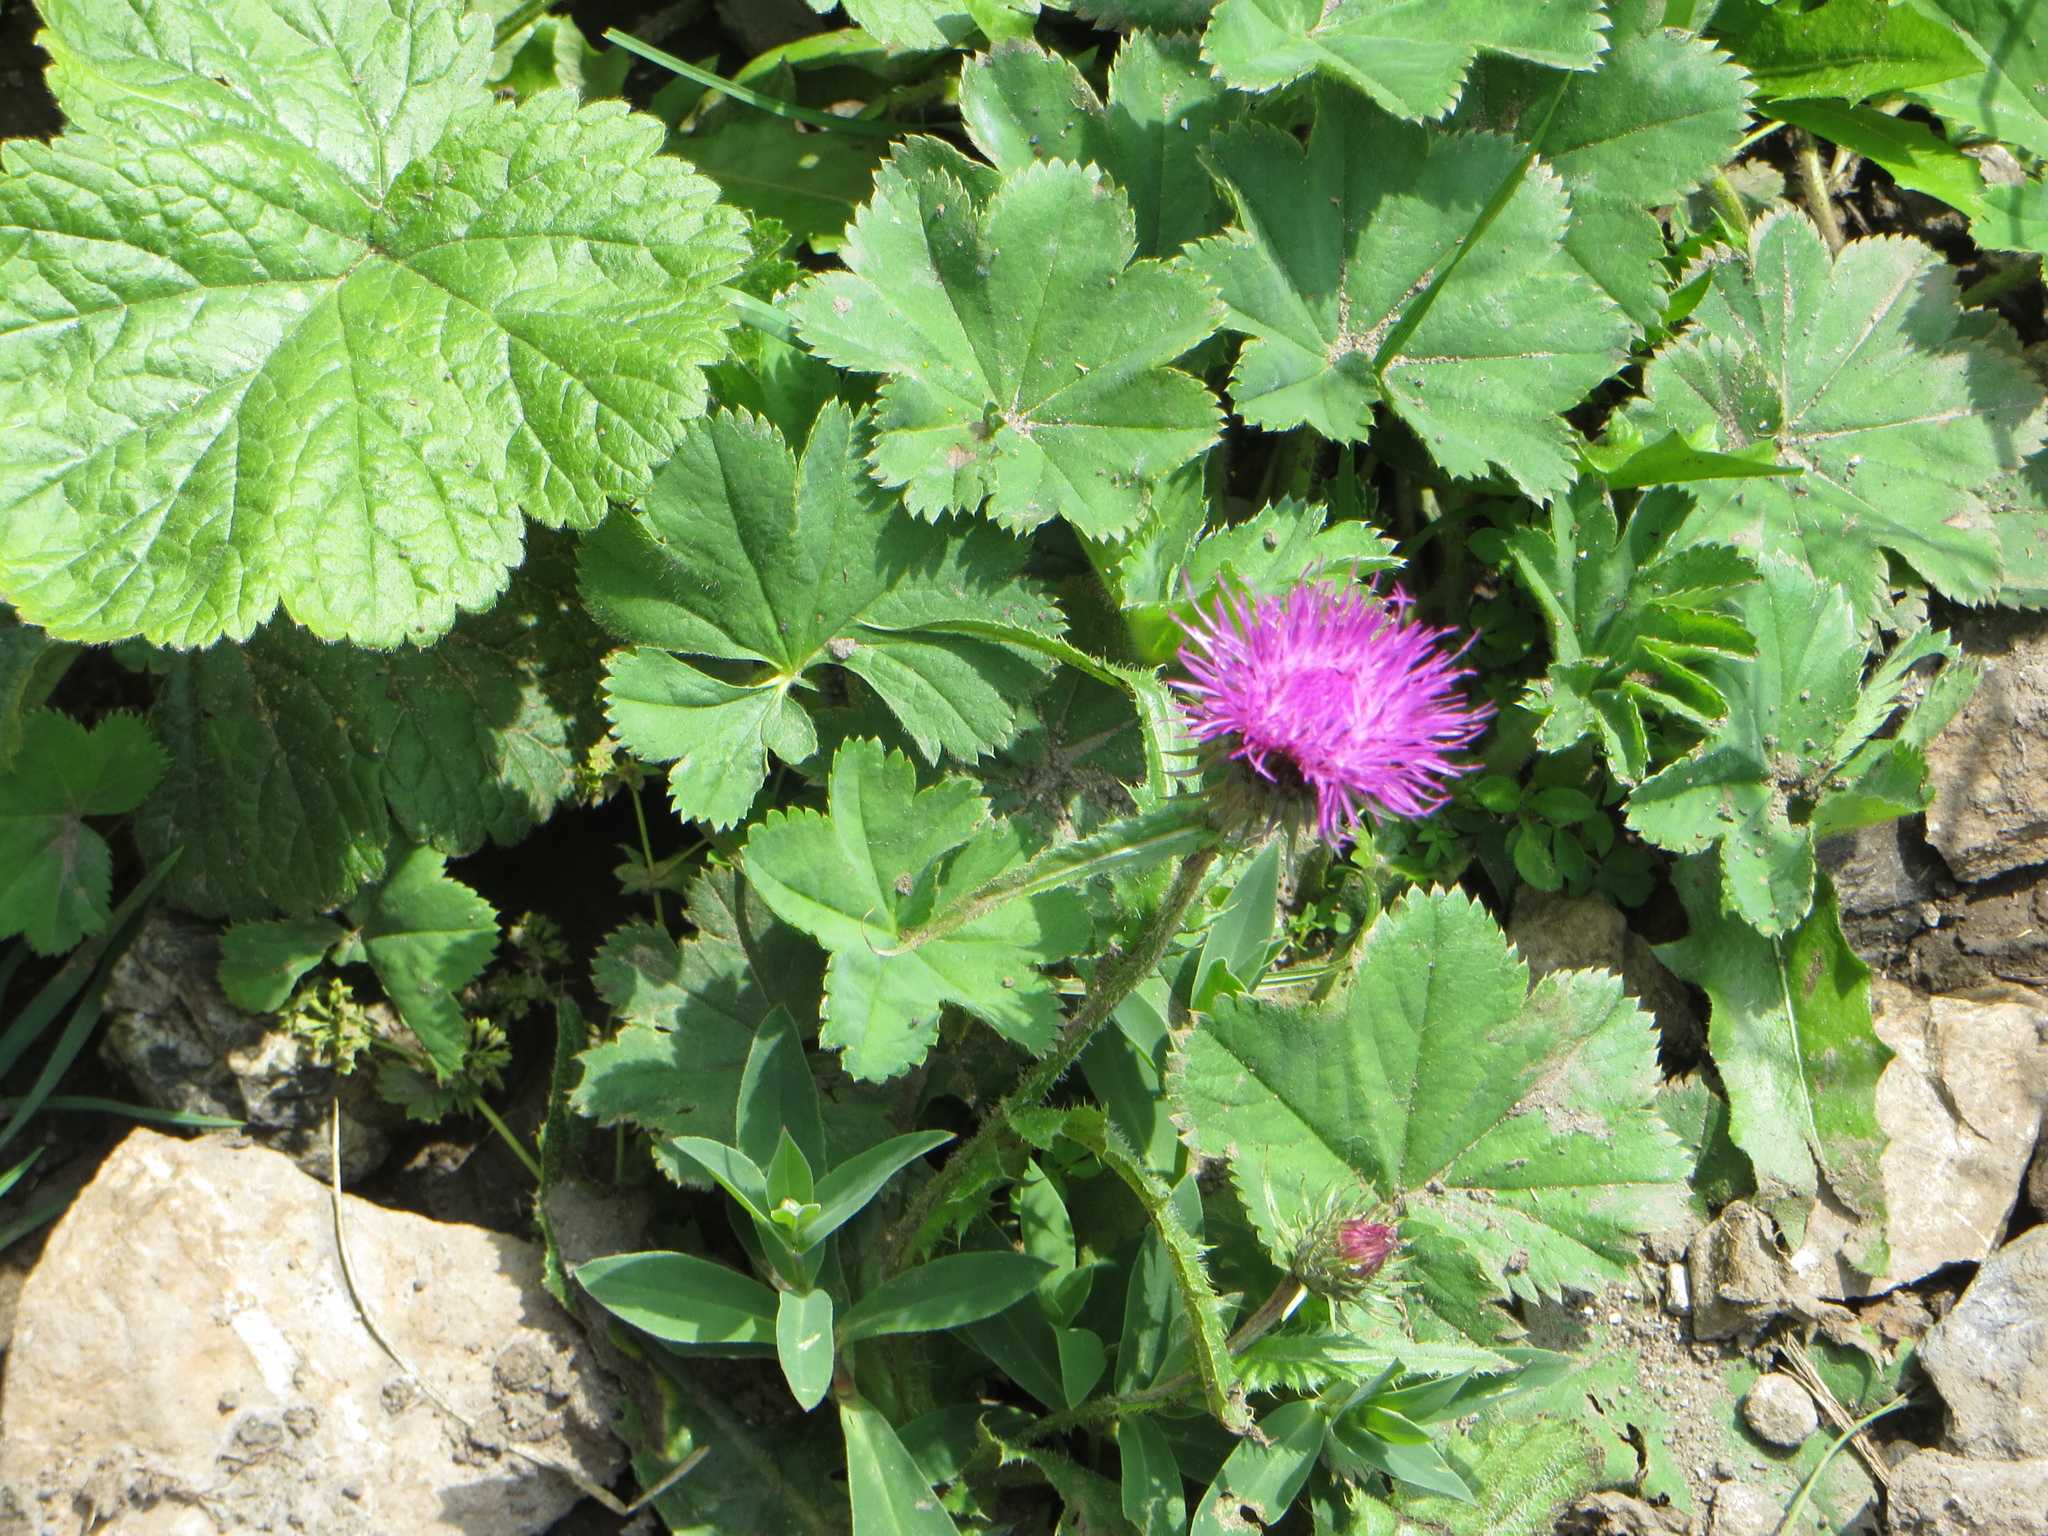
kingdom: Plantae
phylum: Tracheophyta
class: Magnoliopsida
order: Asterales
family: Asteraceae
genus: Carduus
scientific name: Carduus defloratus
